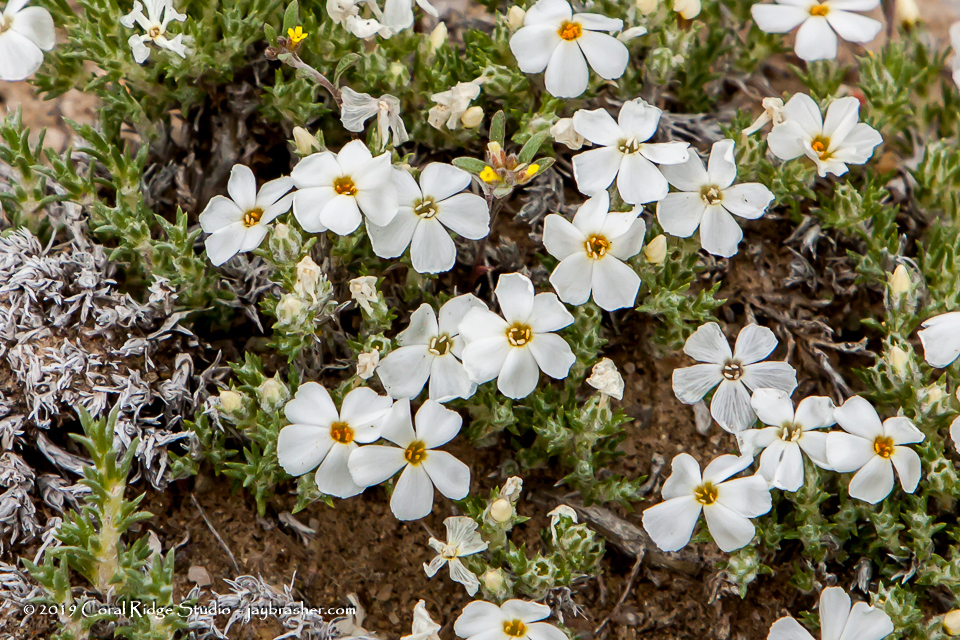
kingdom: Plantae
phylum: Tracheophyta
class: Magnoliopsida
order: Ericales
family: Polemoniaceae
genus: Phlox
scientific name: Phlox hoodii
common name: Moss phlox
